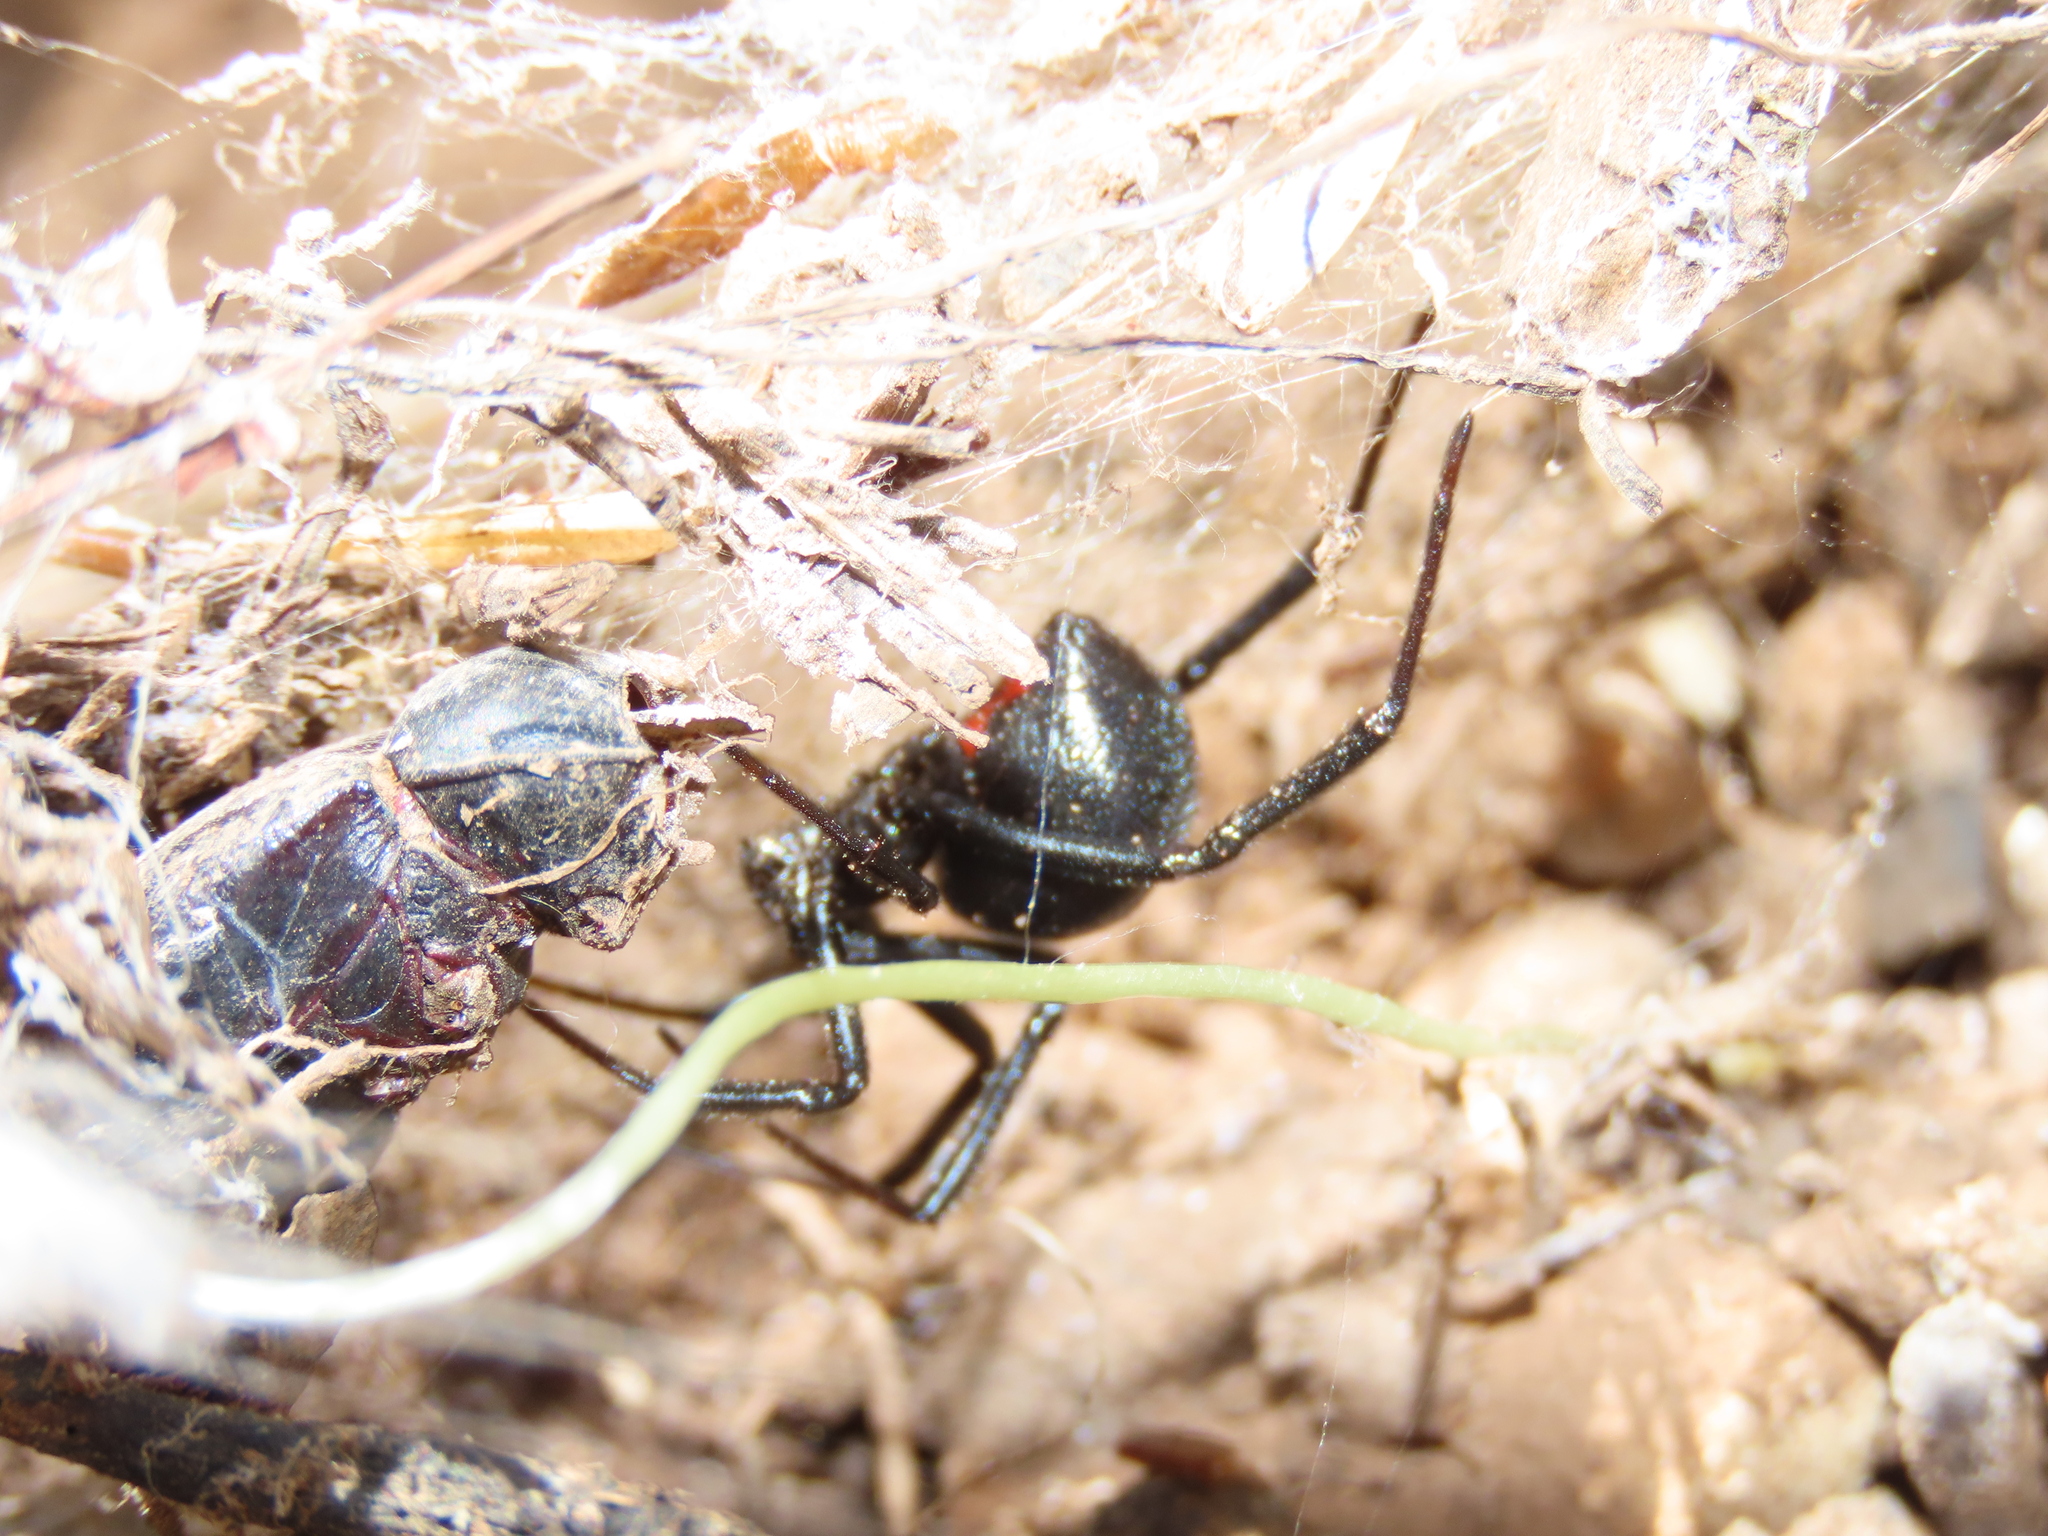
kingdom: Animalia
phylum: Arthropoda
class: Arachnida
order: Araneae
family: Theridiidae
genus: Latrodectus
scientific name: Latrodectus hesperus
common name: Western black widow
